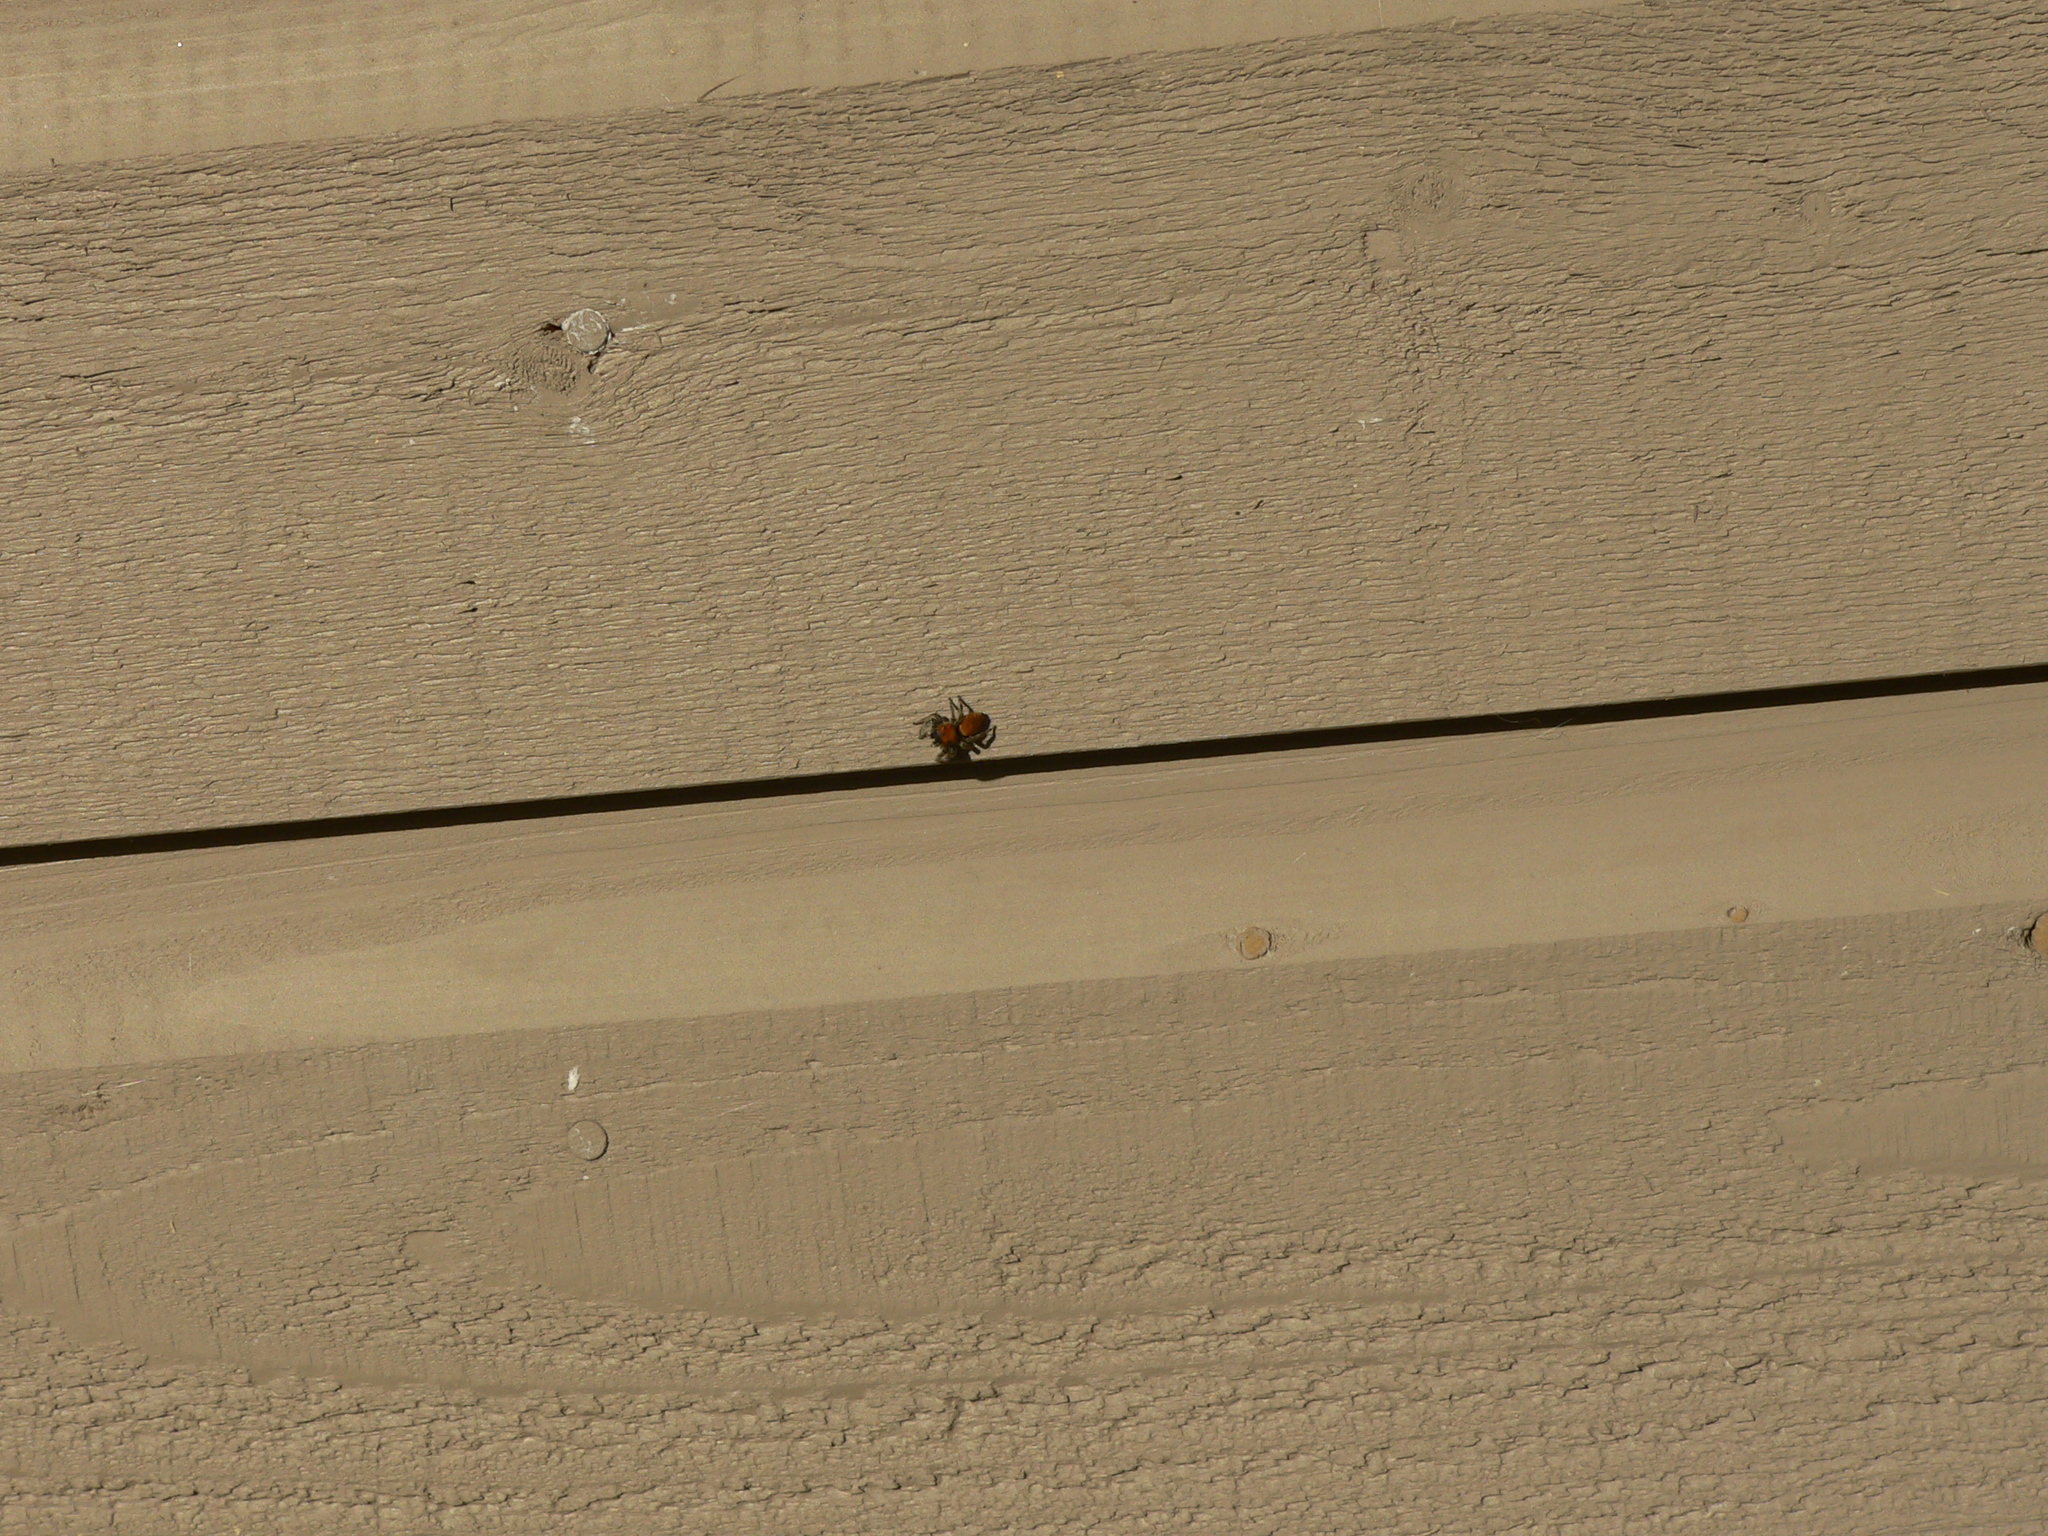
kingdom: Animalia
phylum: Arthropoda
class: Arachnida
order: Araneae
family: Salticidae
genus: Phidippus
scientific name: Phidippus whitmani
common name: Whitman's jumping spider
